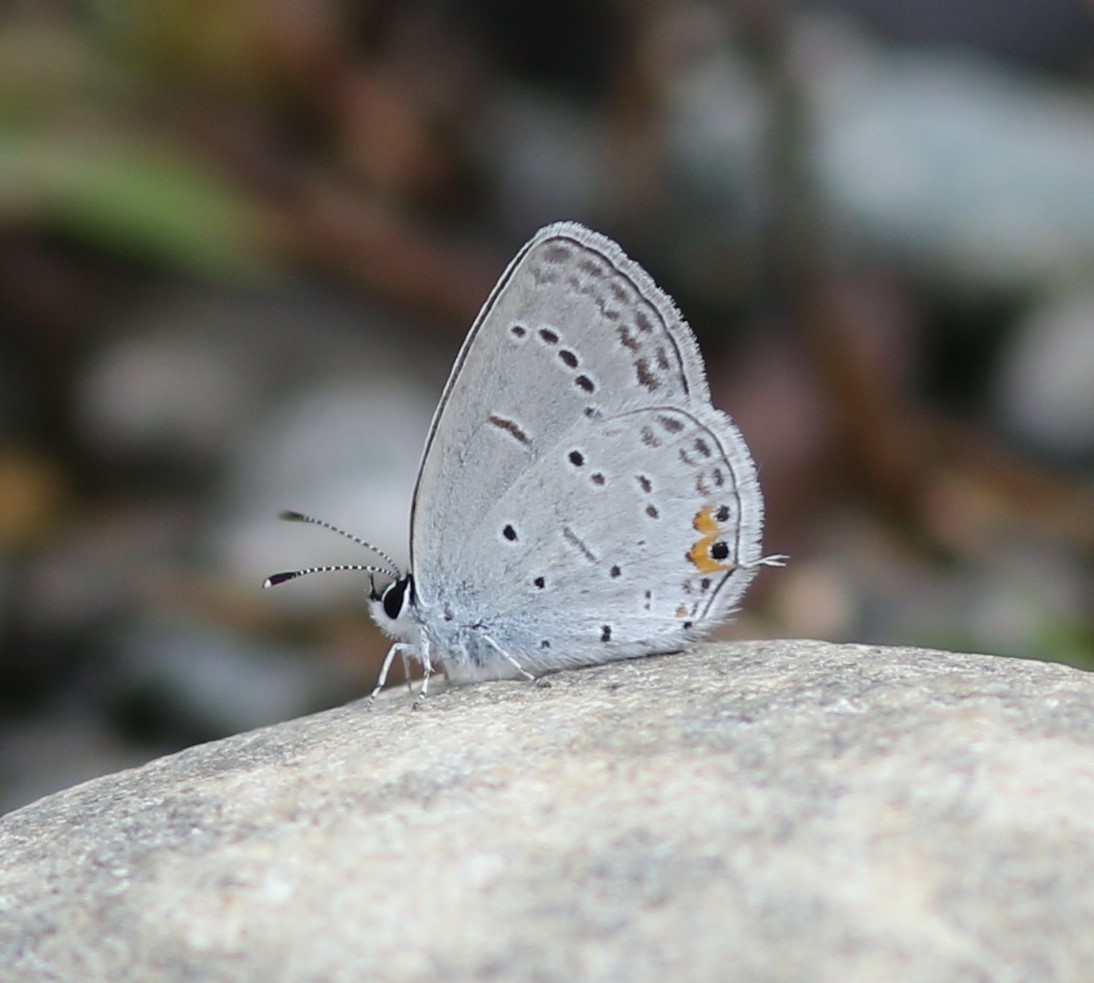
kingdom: Animalia
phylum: Arthropoda
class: Insecta
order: Lepidoptera
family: Lycaenidae
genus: Elkalyce
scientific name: Elkalyce comyntas
